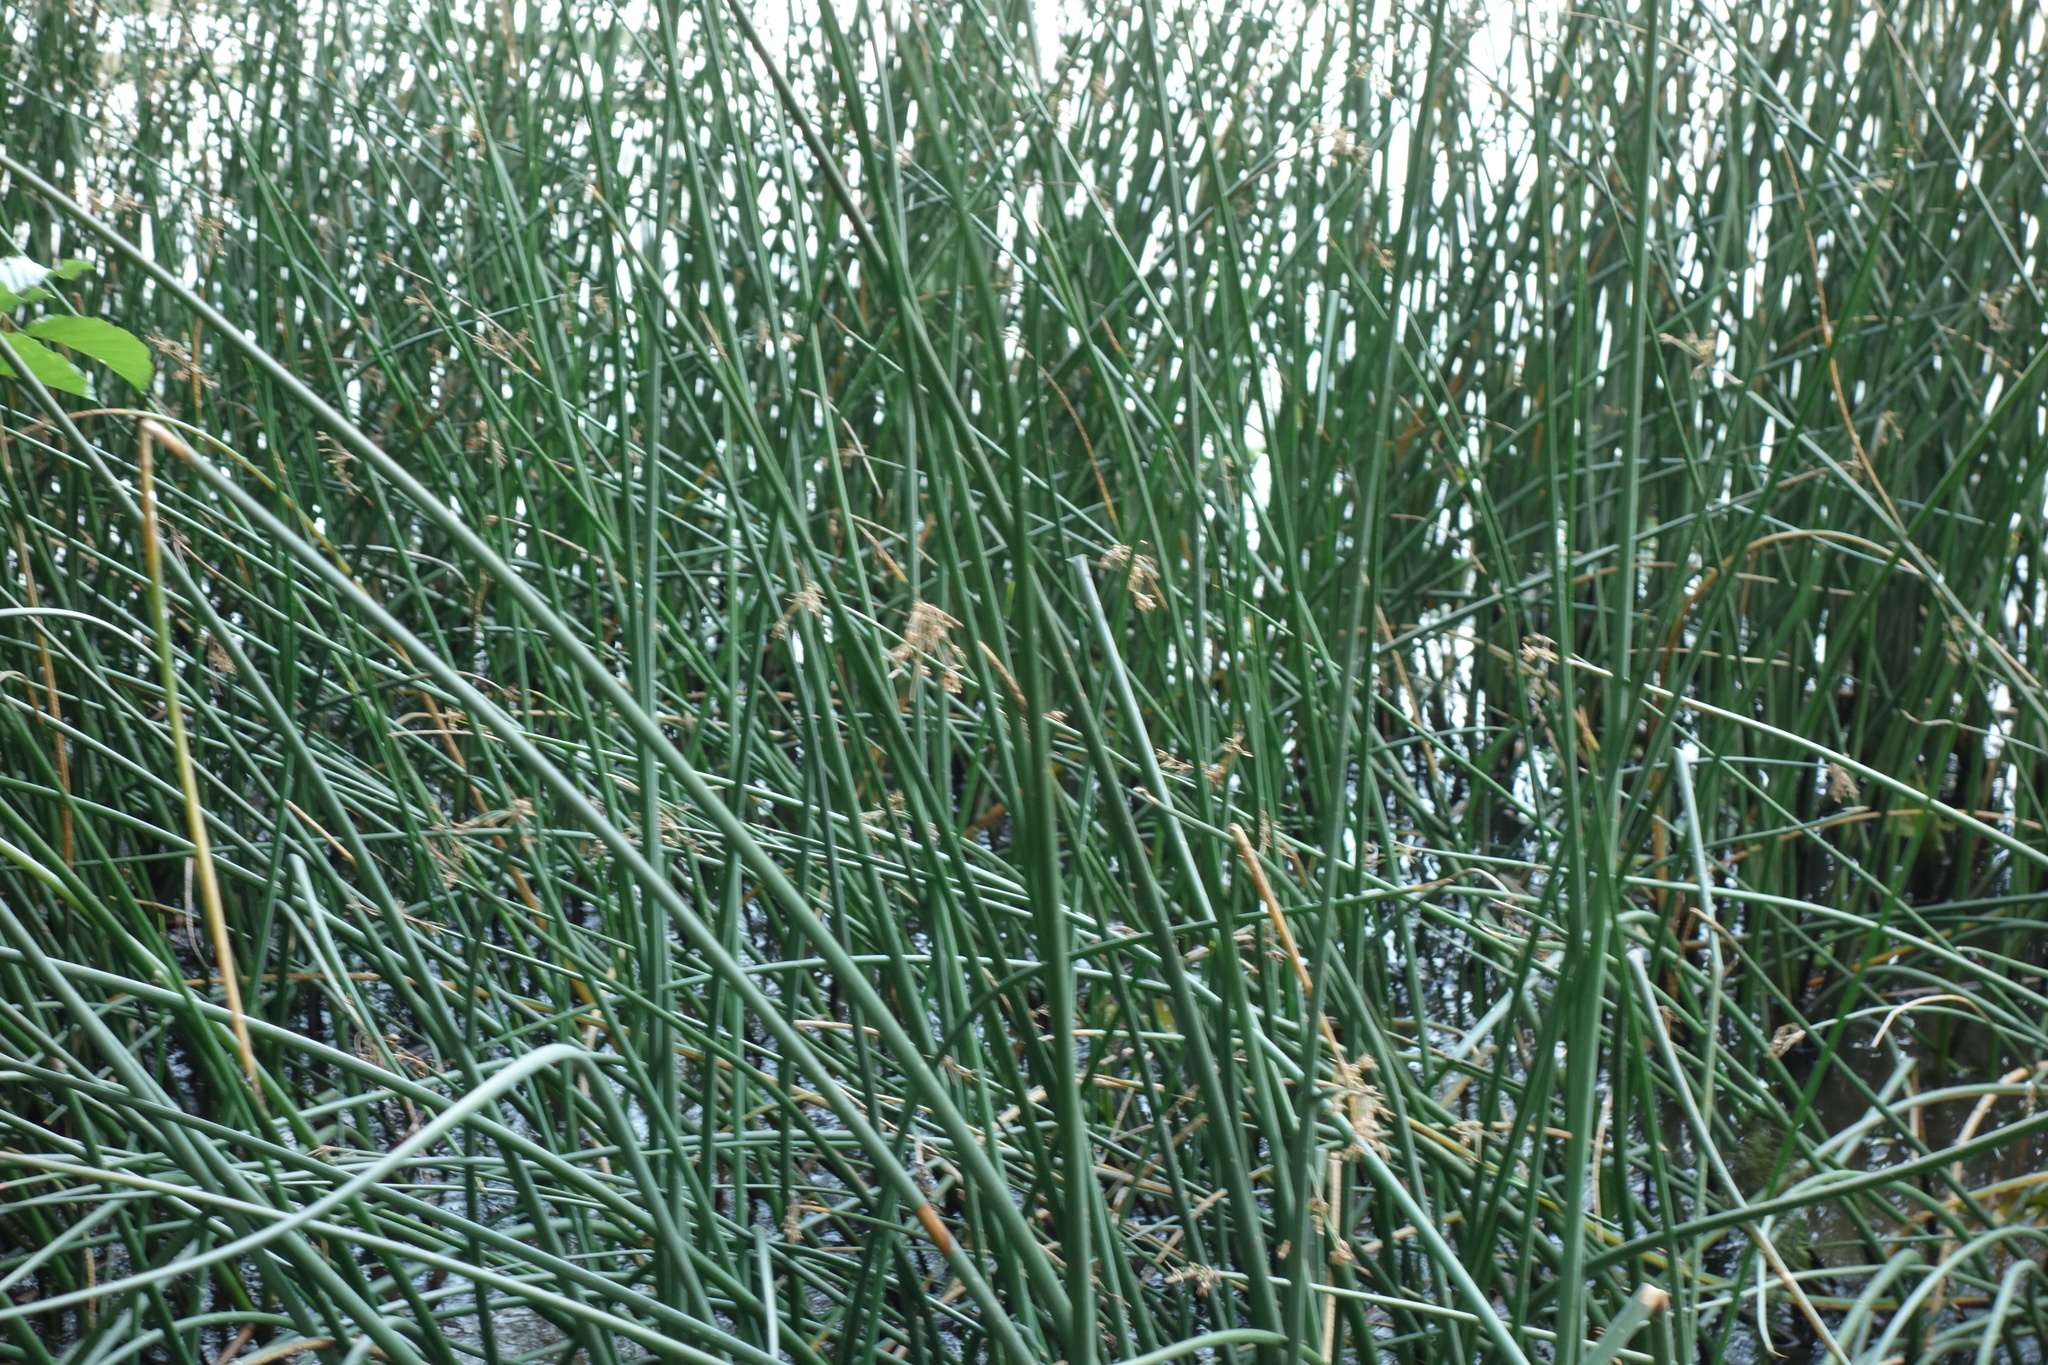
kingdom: Plantae
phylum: Tracheophyta
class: Liliopsida
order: Poales
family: Cyperaceae
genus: Schoenoplectus
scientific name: Schoenoplectus lacustris
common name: Common club-rush
